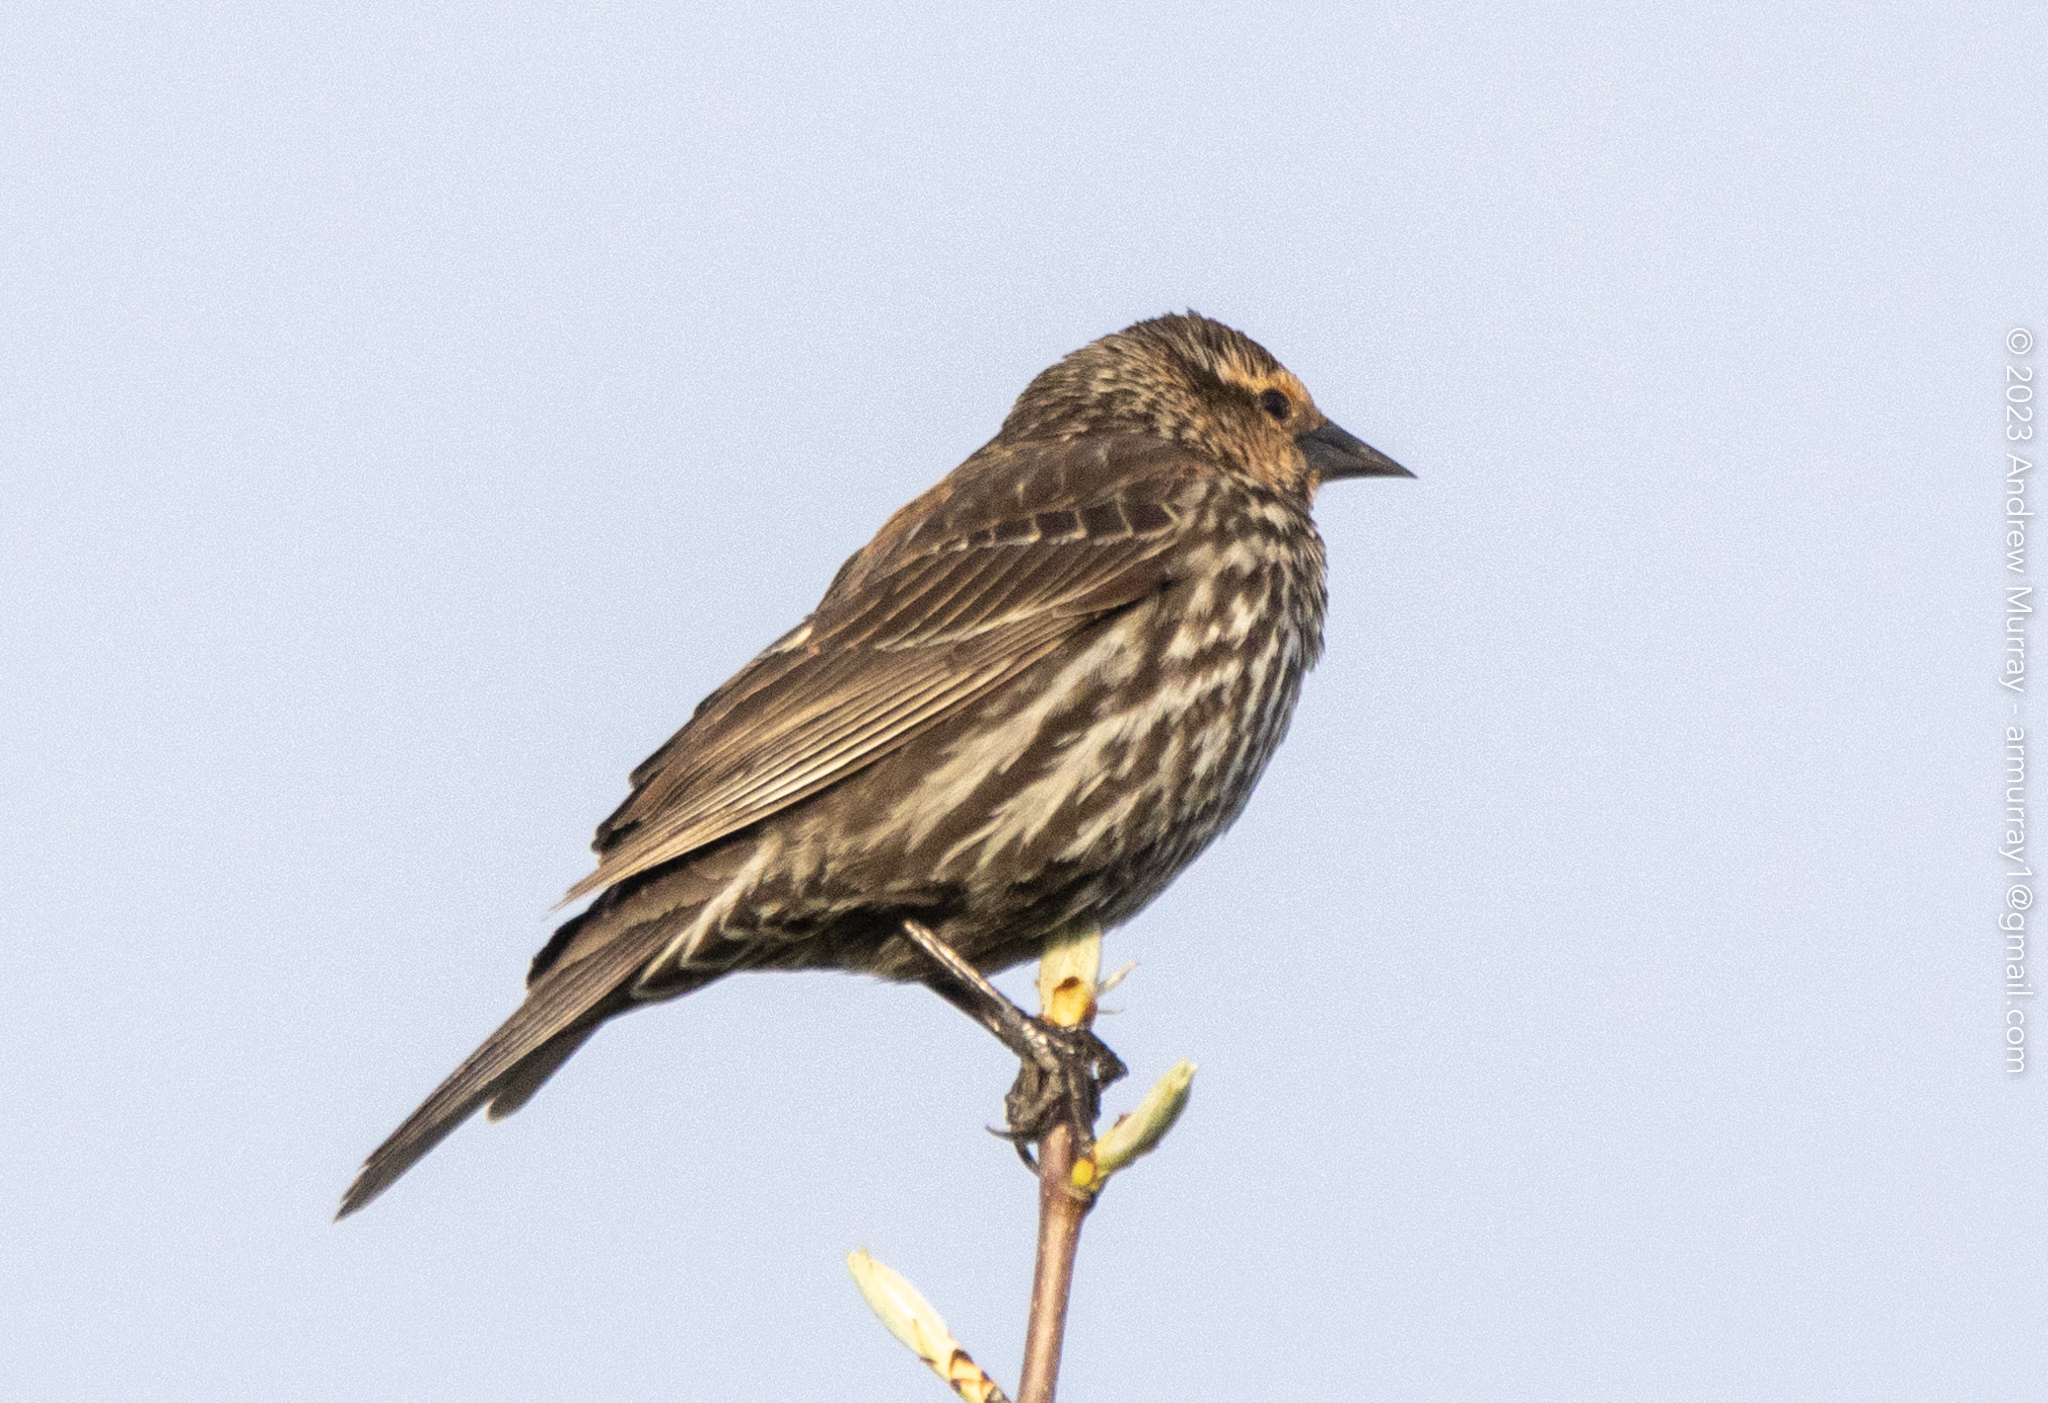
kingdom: Animalia
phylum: Chordata
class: Aves
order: Passeriformes
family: Icteridae
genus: Agelaius
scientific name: Agelaius phoeniceus
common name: Red-winged blackbird
